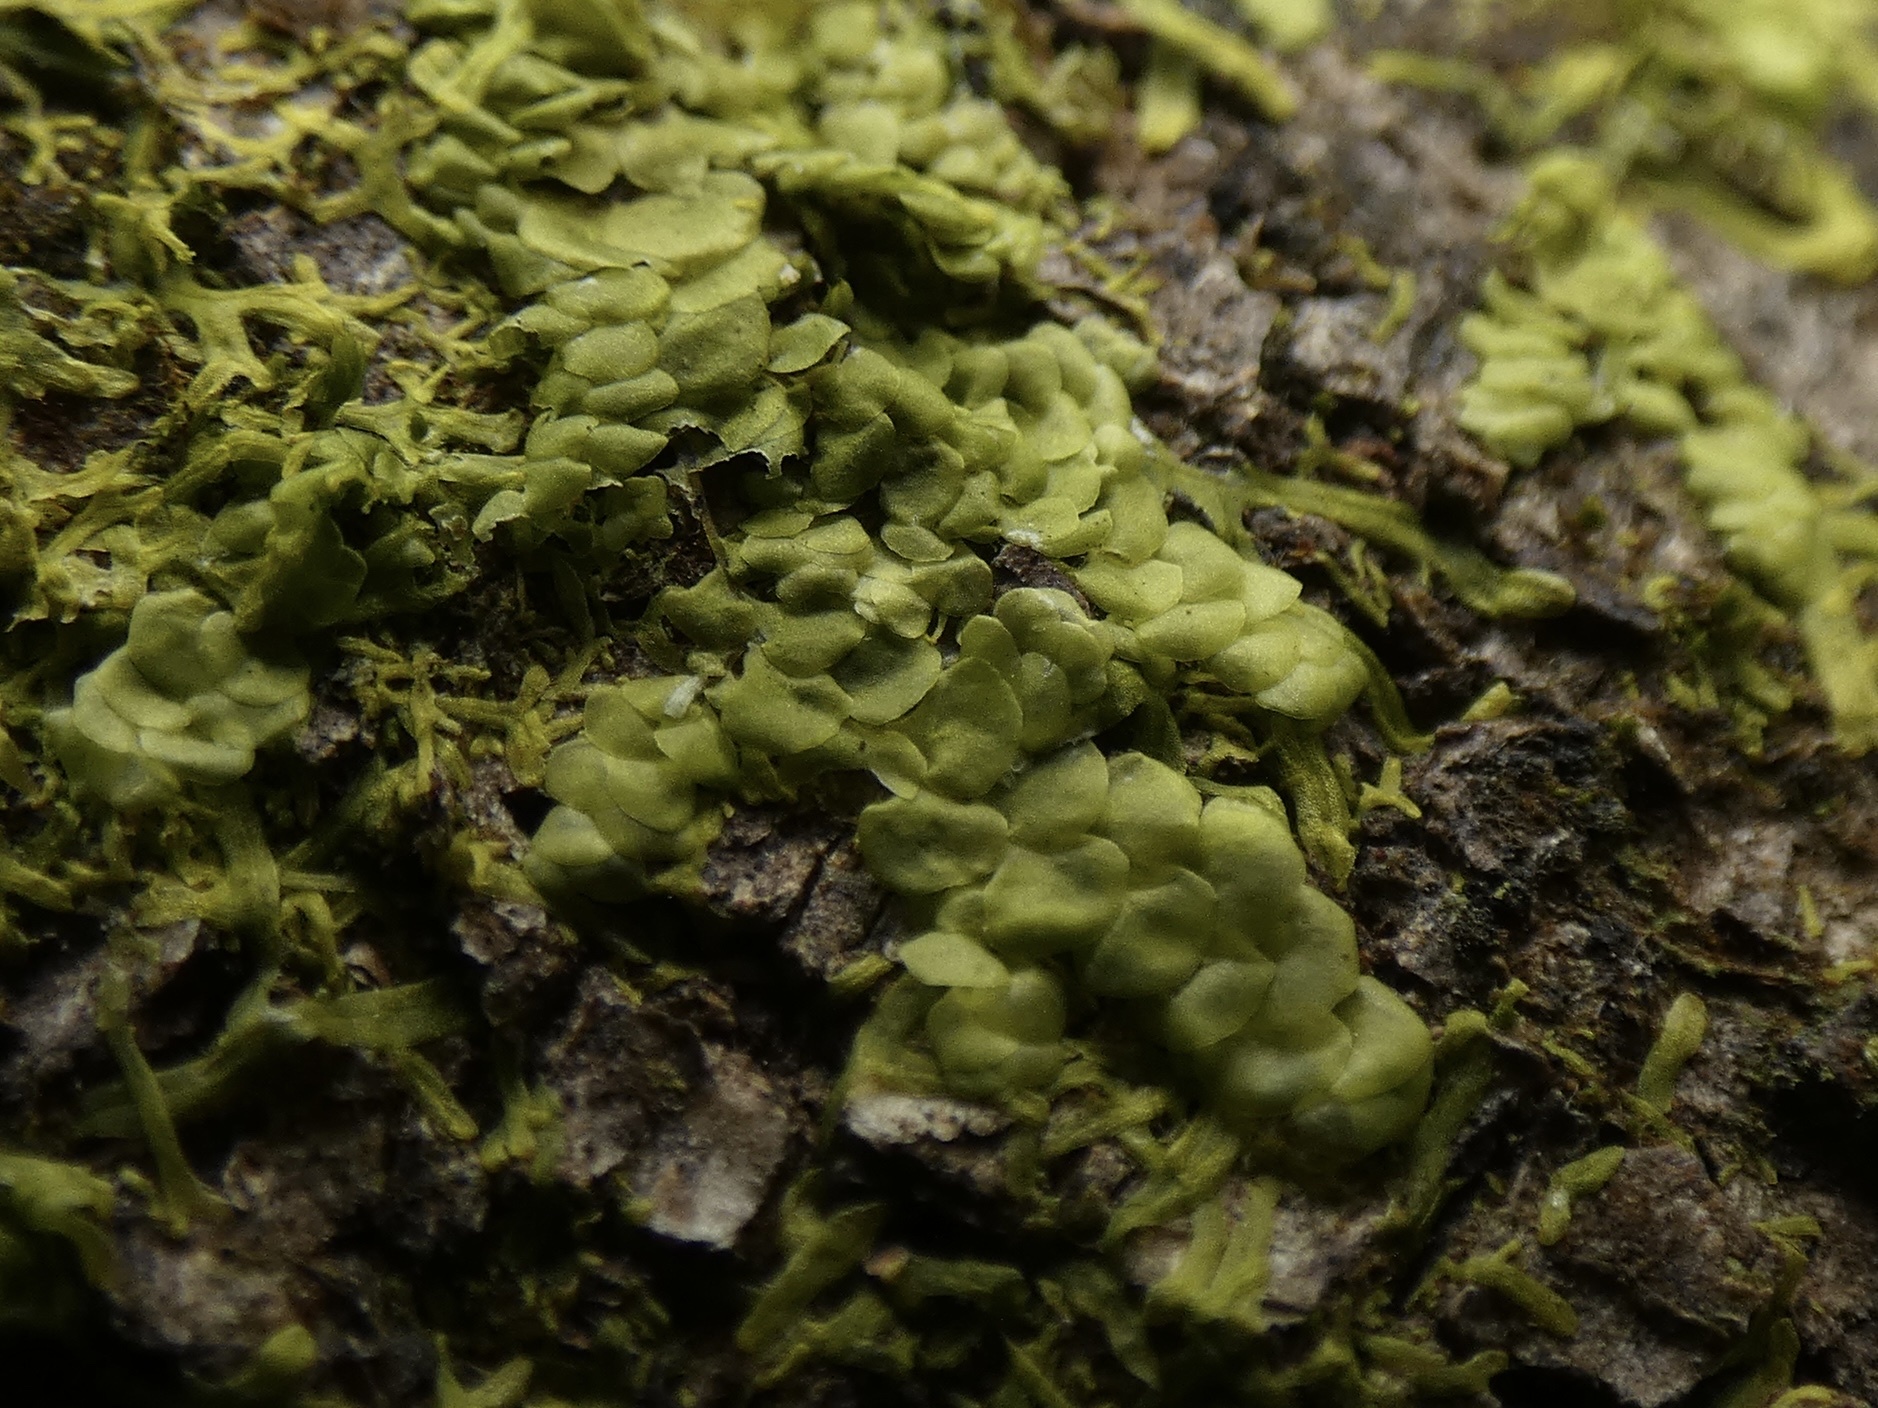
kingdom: Plantae
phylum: Marchantiophyta
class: Jungermanniopsida
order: Porellales
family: Radulaceae
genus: Radula
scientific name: Radula complanata
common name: Flat-leaved scalewort
